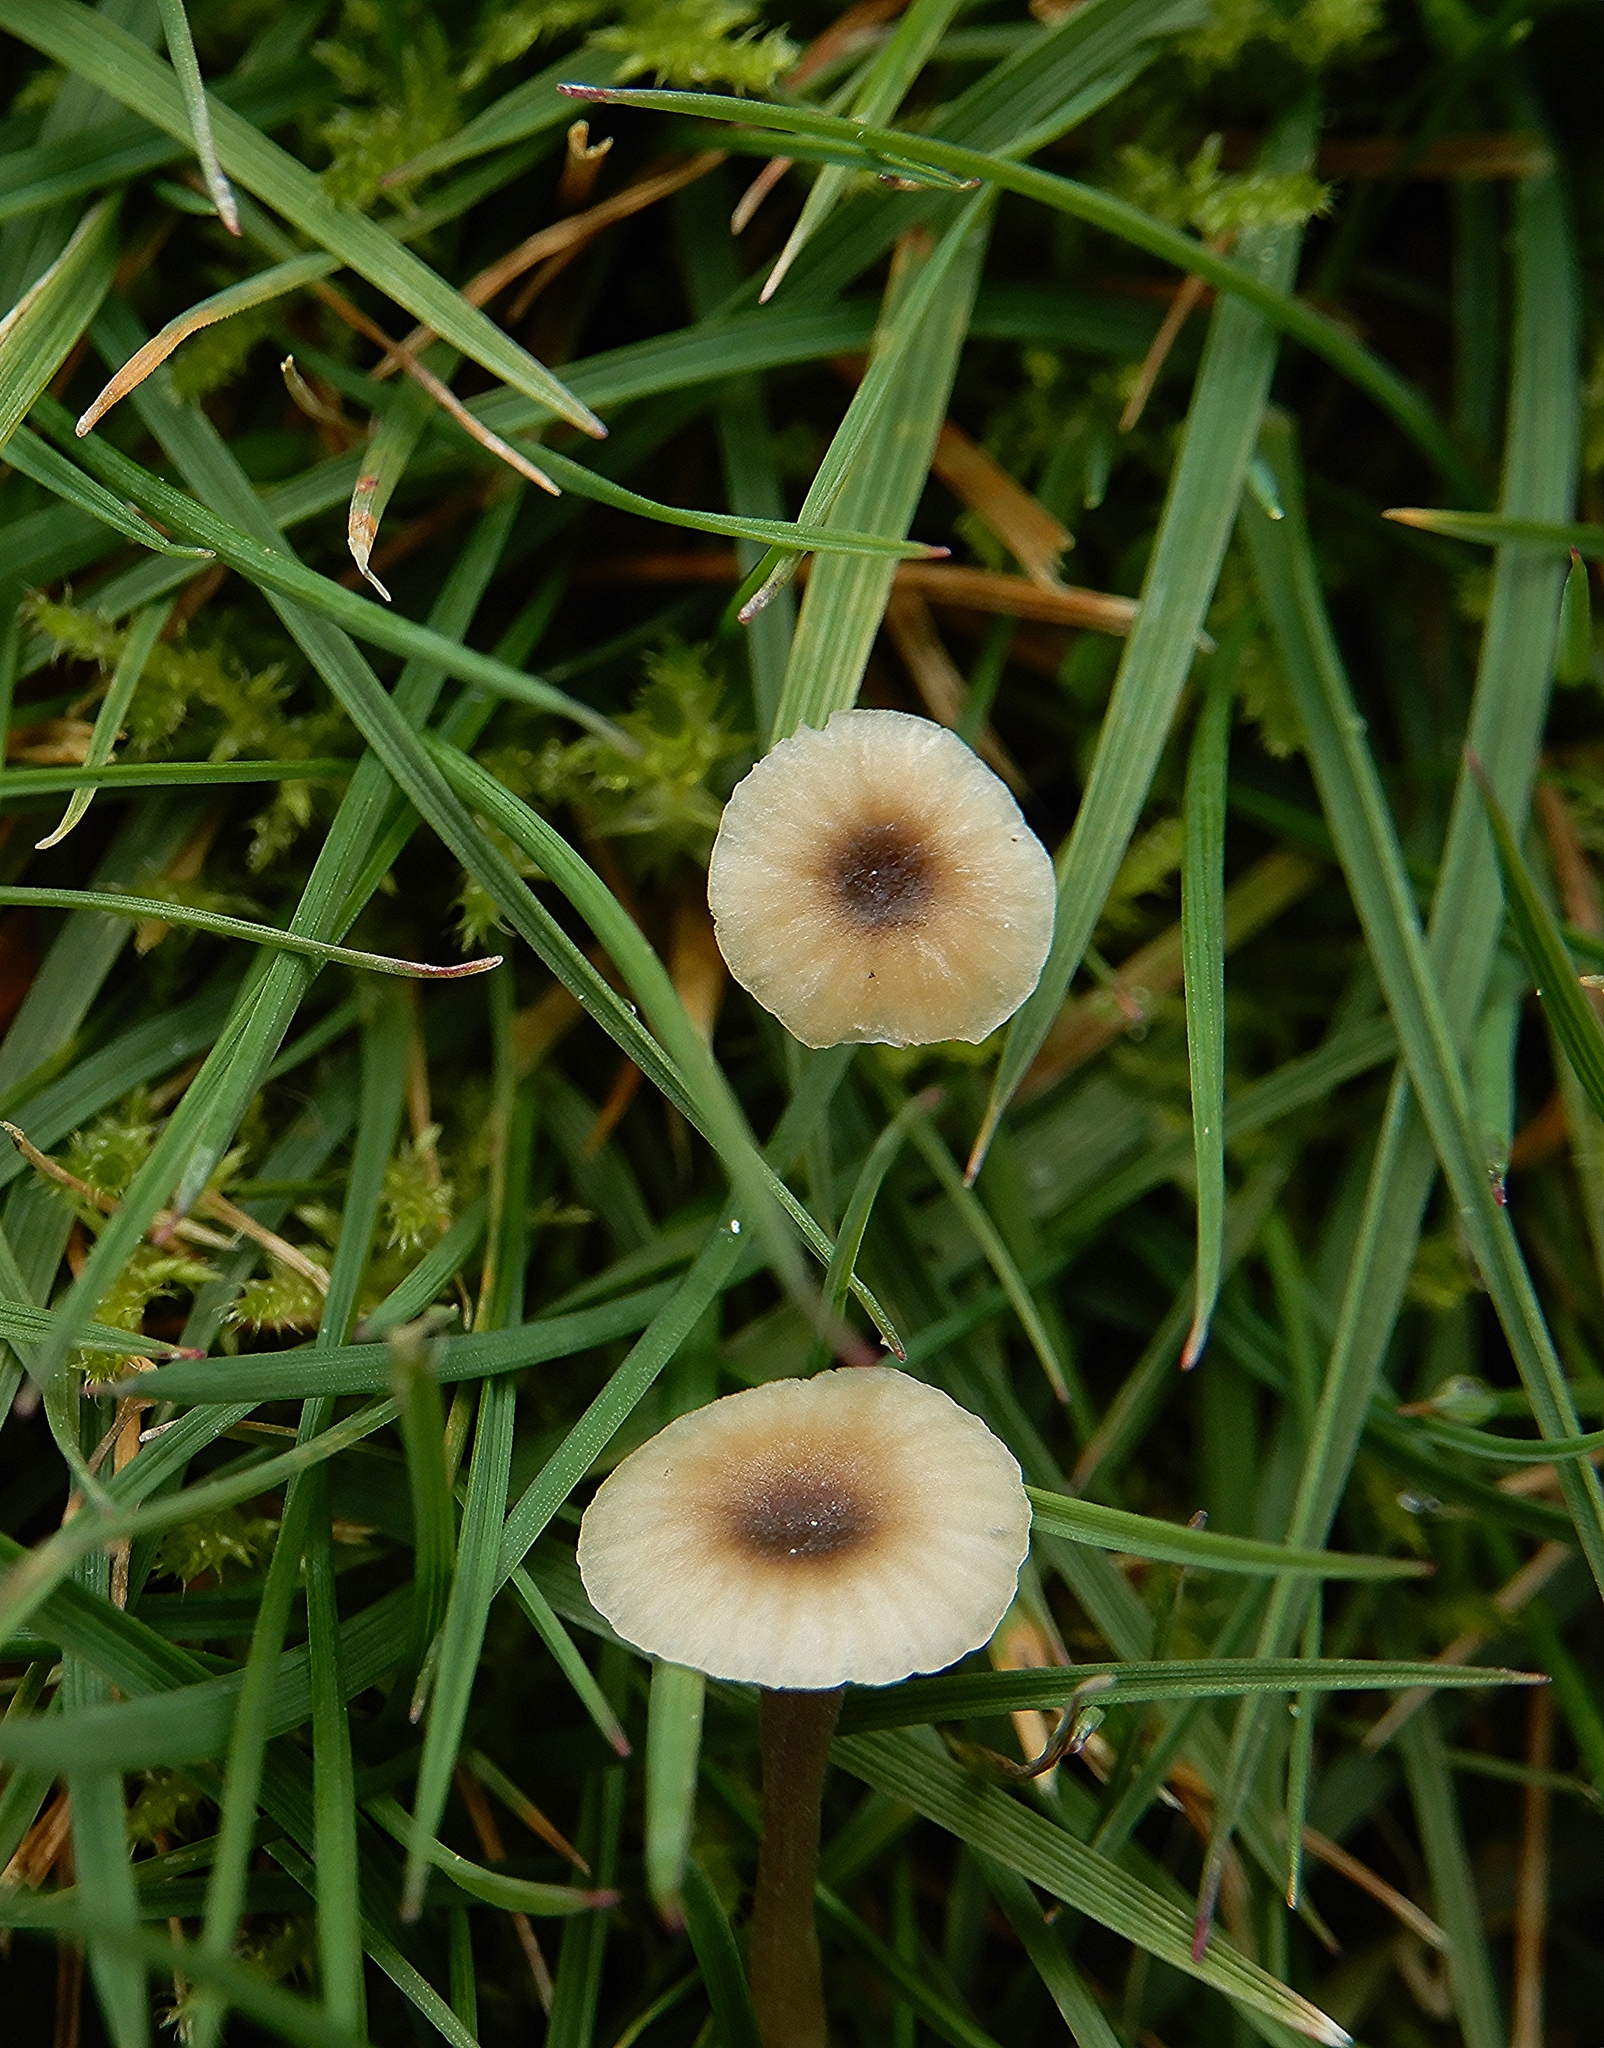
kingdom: Fungi
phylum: Basidiomycota
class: Agaricomycetes
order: Hymenochaetales
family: Rickenellaceae
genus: Rickenella
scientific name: Rickenella swartzii
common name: Collared mosscap
